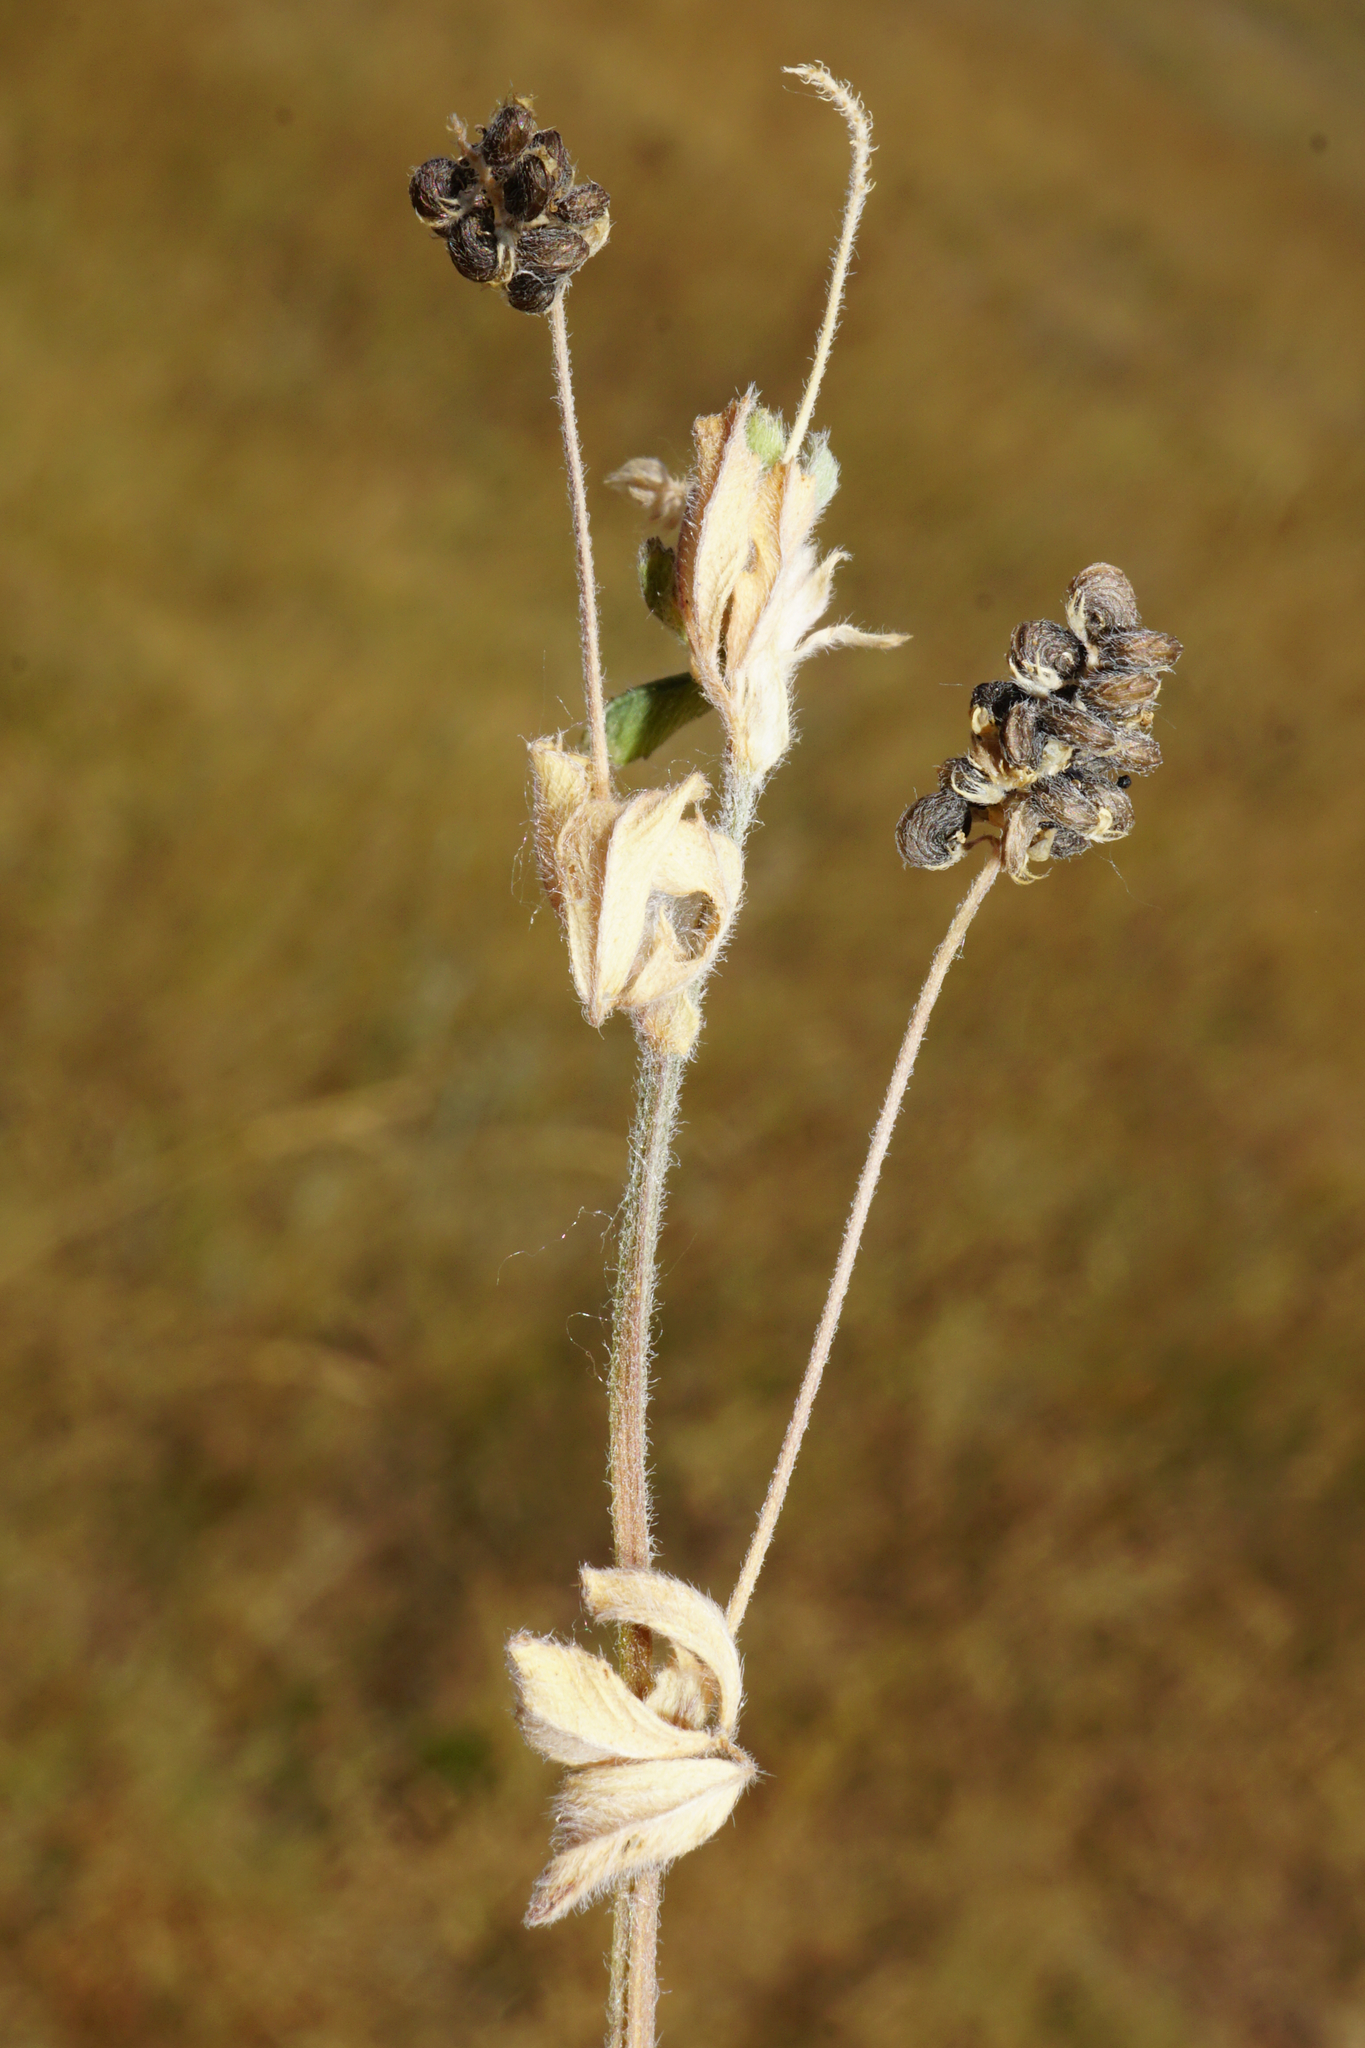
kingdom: Plantae
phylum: Tracheophyta
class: Magnoliopsida
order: Fabales
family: Fabaceae
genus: Medicago
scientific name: Medicago lupulina
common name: Black medick
